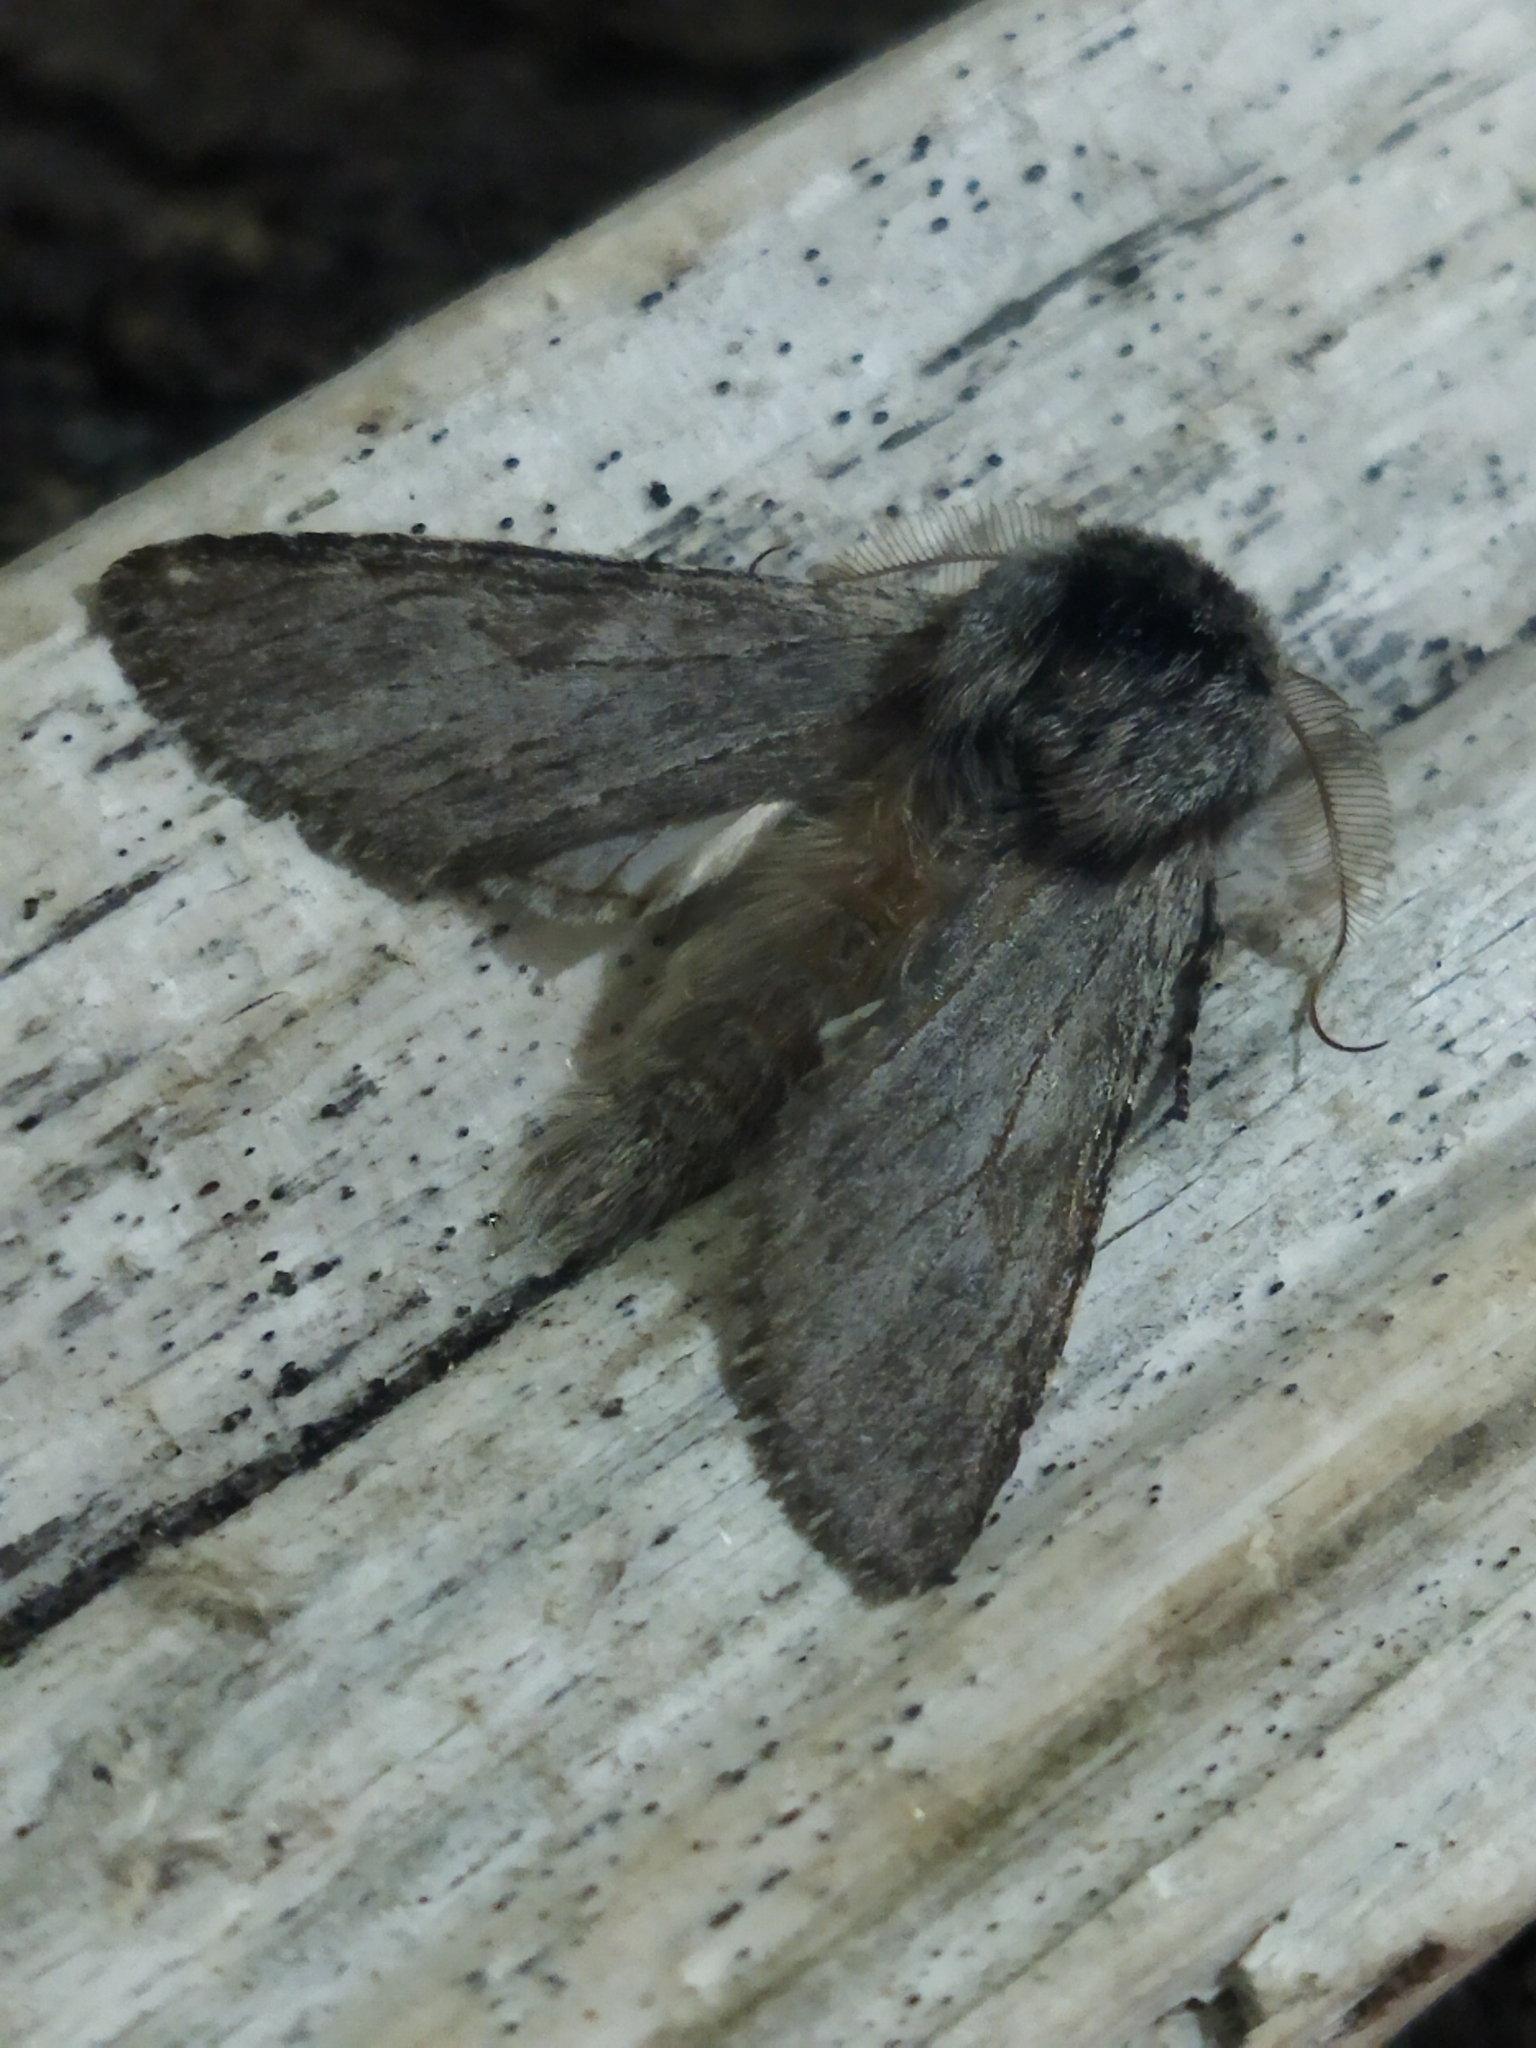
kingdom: Animalia
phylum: Arthropoda
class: Insecta
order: Lepidoptera
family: Notodontidae
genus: Dicranura
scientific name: Dicranura ulmi
